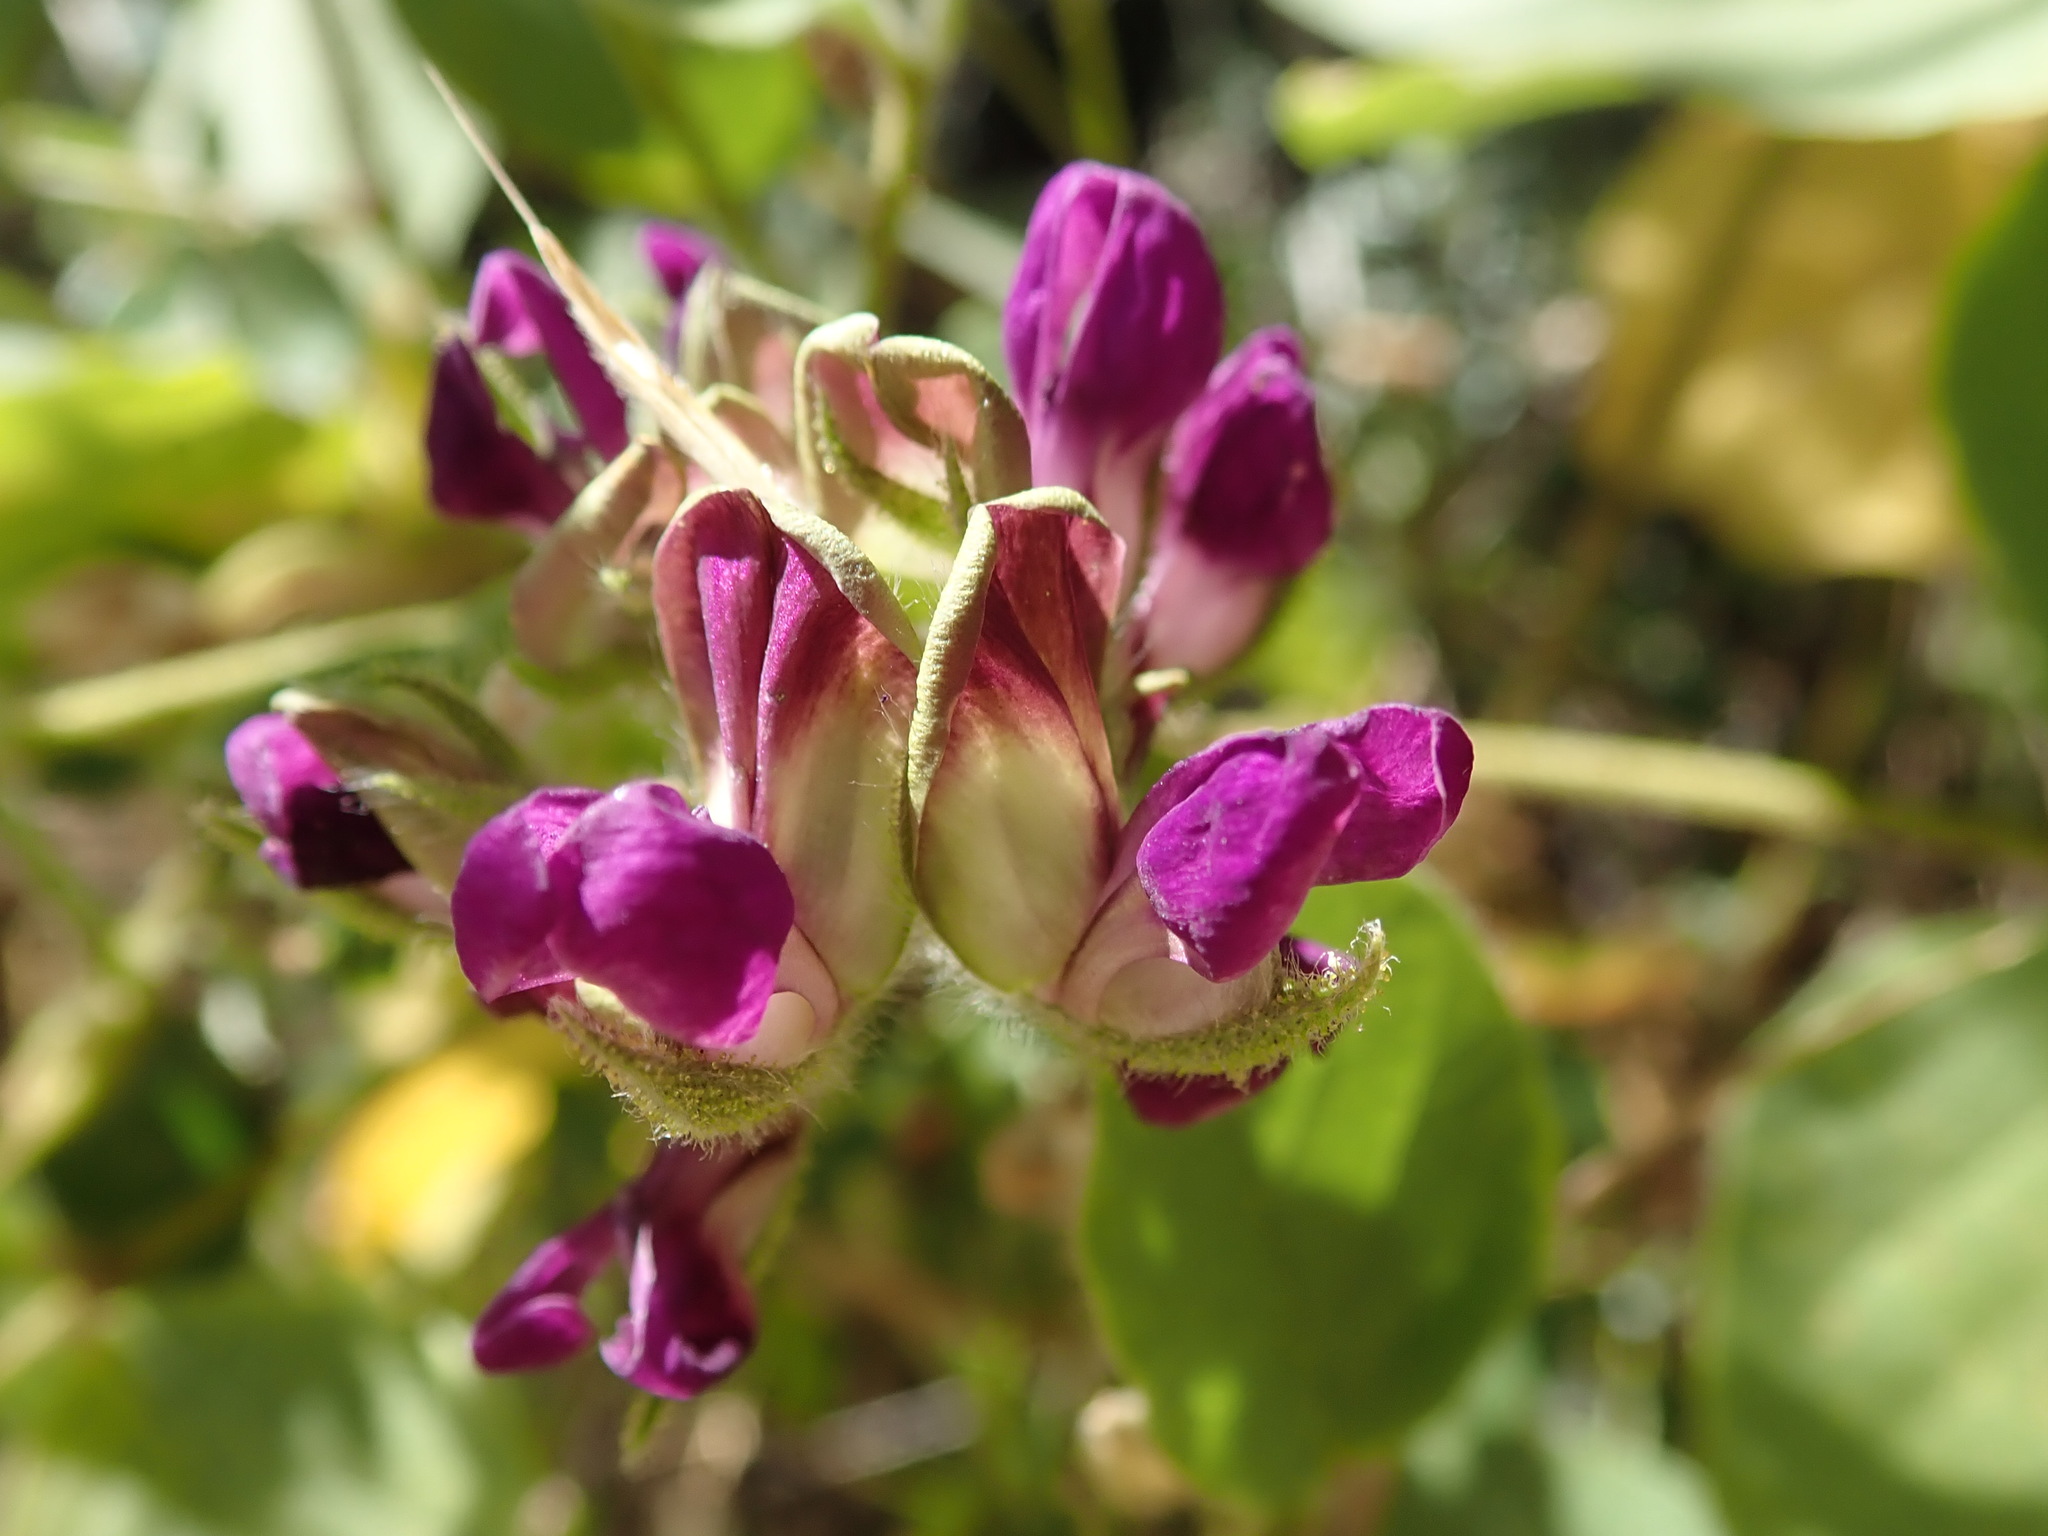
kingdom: Plantae
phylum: Tracheophyta
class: Magnoliopsida
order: Fabales
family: Fabaceae
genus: Hoita
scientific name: Hoita strobilina
